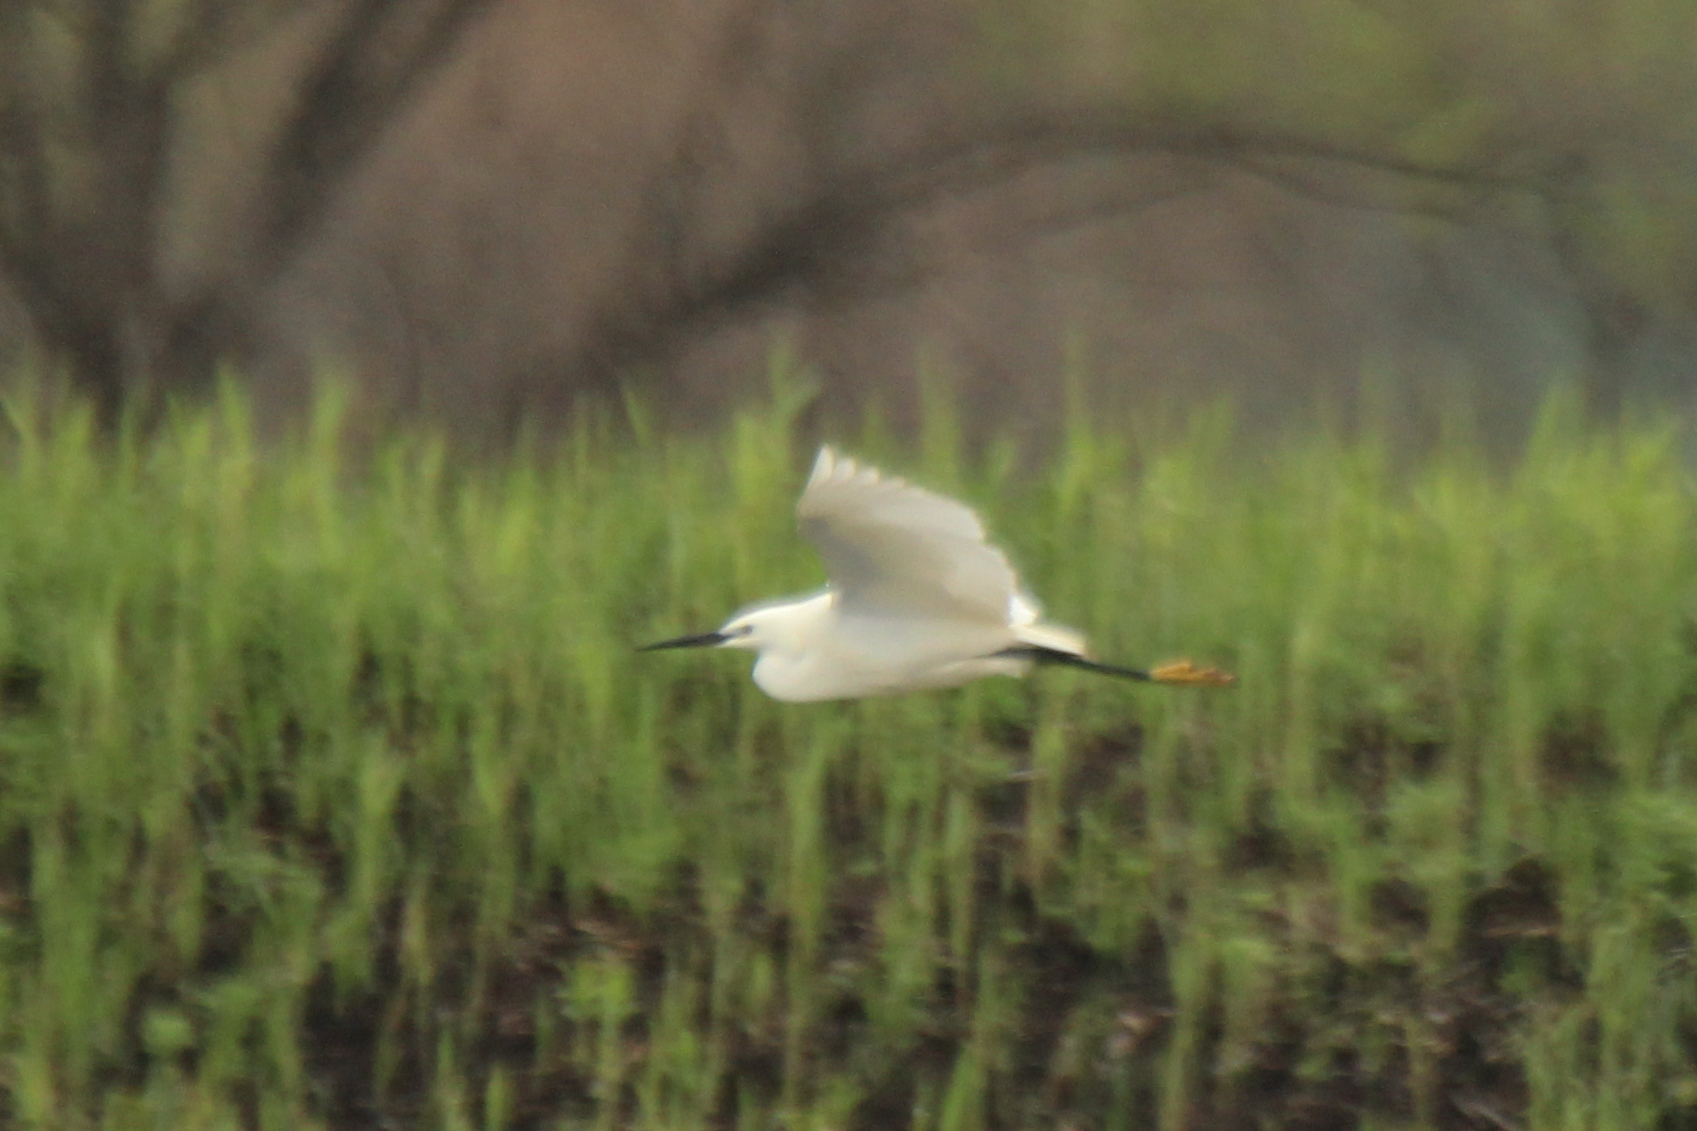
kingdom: Animalia
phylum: Chordata
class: Aves
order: Pelecaniformes
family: Ardeidae
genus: Egretta
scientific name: Egretta garzetta
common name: Little egret
